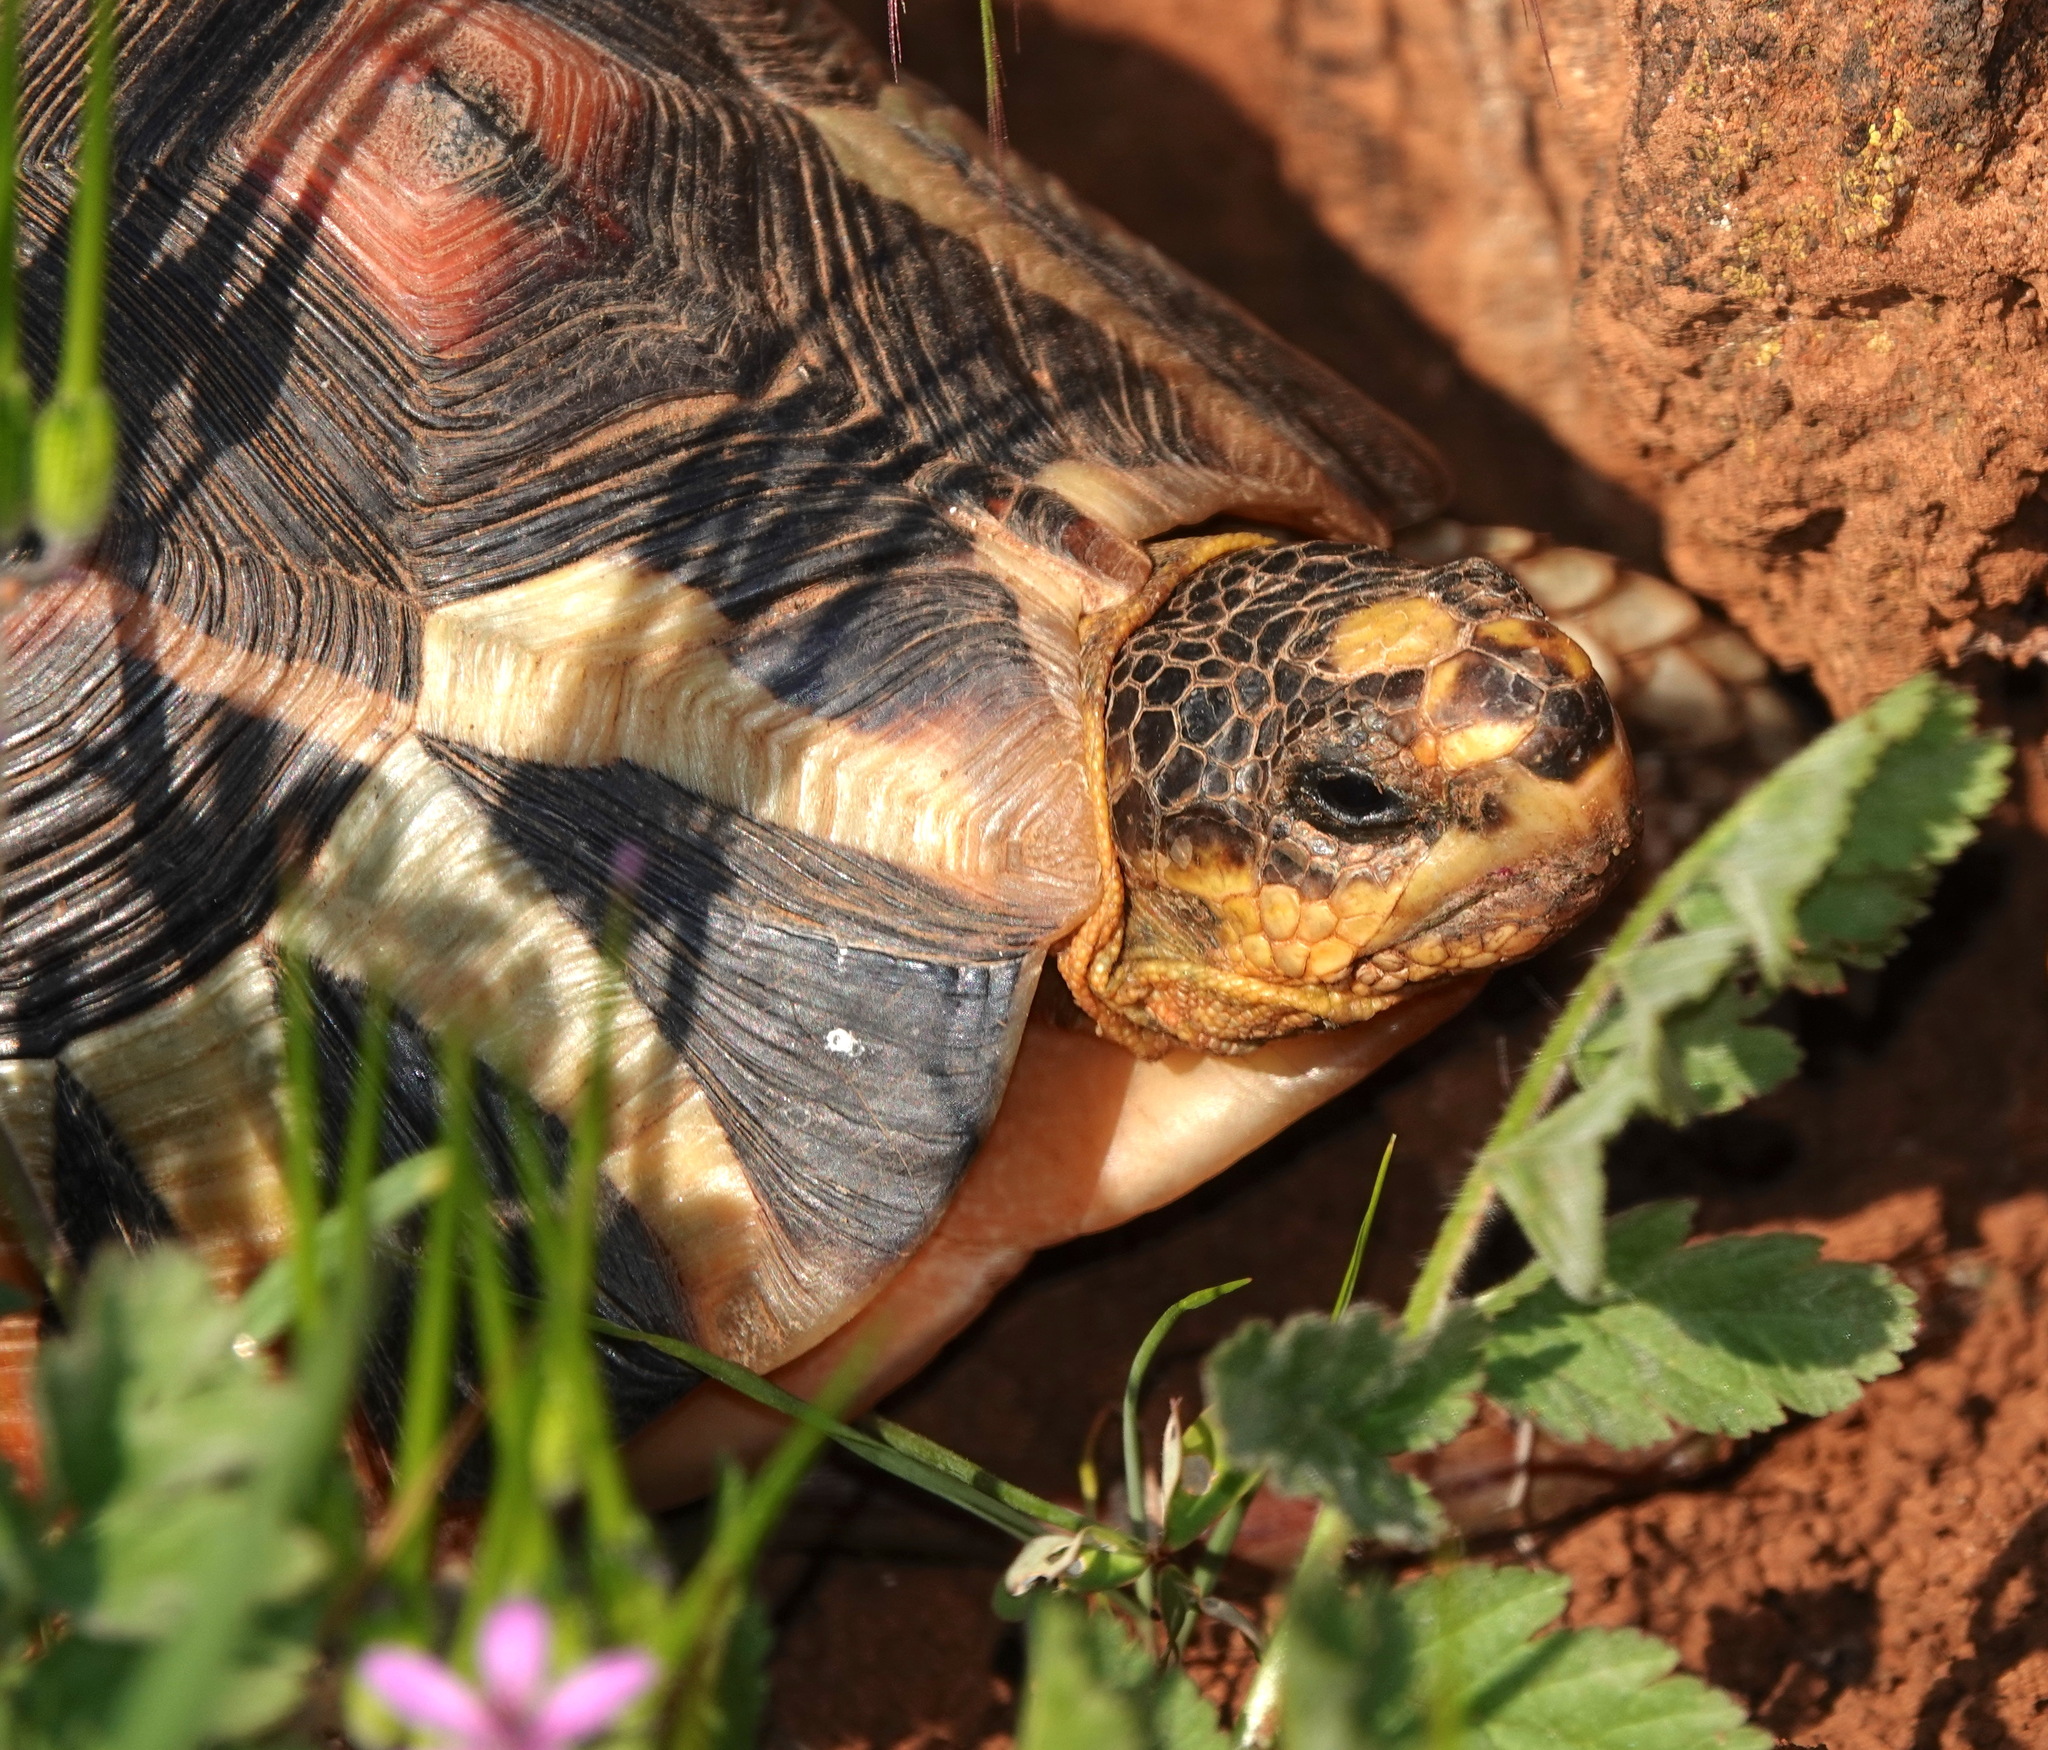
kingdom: Animalia
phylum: Chordata
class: Testudines
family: Testudinidae
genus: Chersina
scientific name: Chersina angulata
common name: South african bowsprit tortoise
